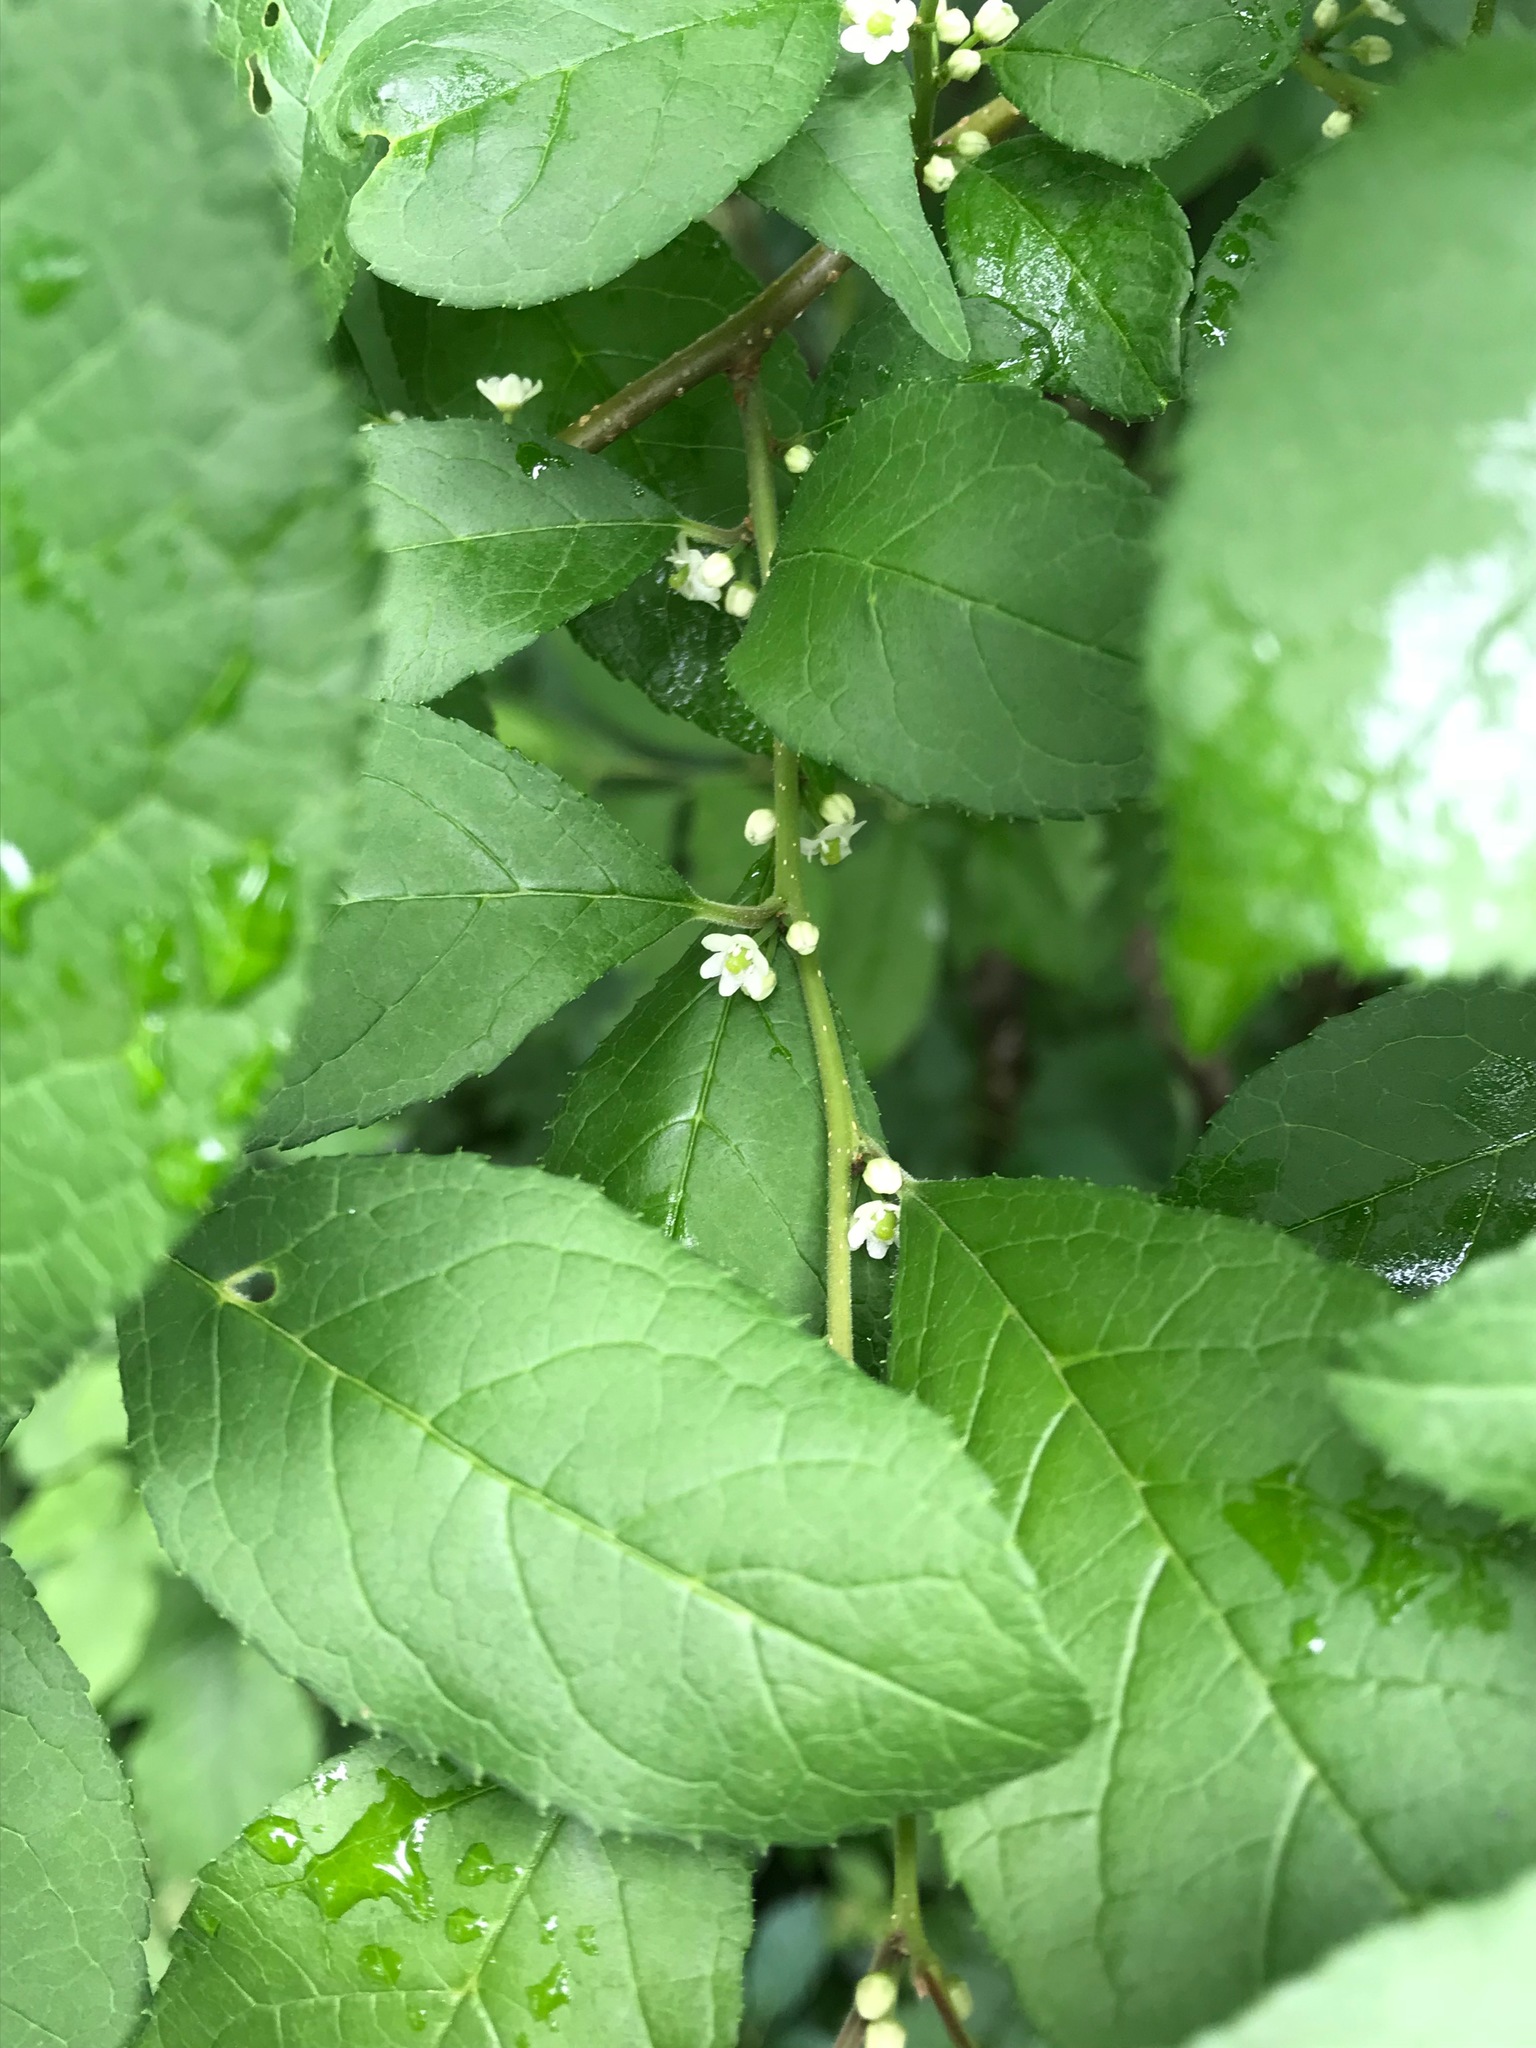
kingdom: Plantae
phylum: Tracheophyta
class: Magnoliopsida
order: Aquifoliales
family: Aquifoliaceae
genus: Ilex
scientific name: Ilex verticillata
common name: Virginia winterberry
